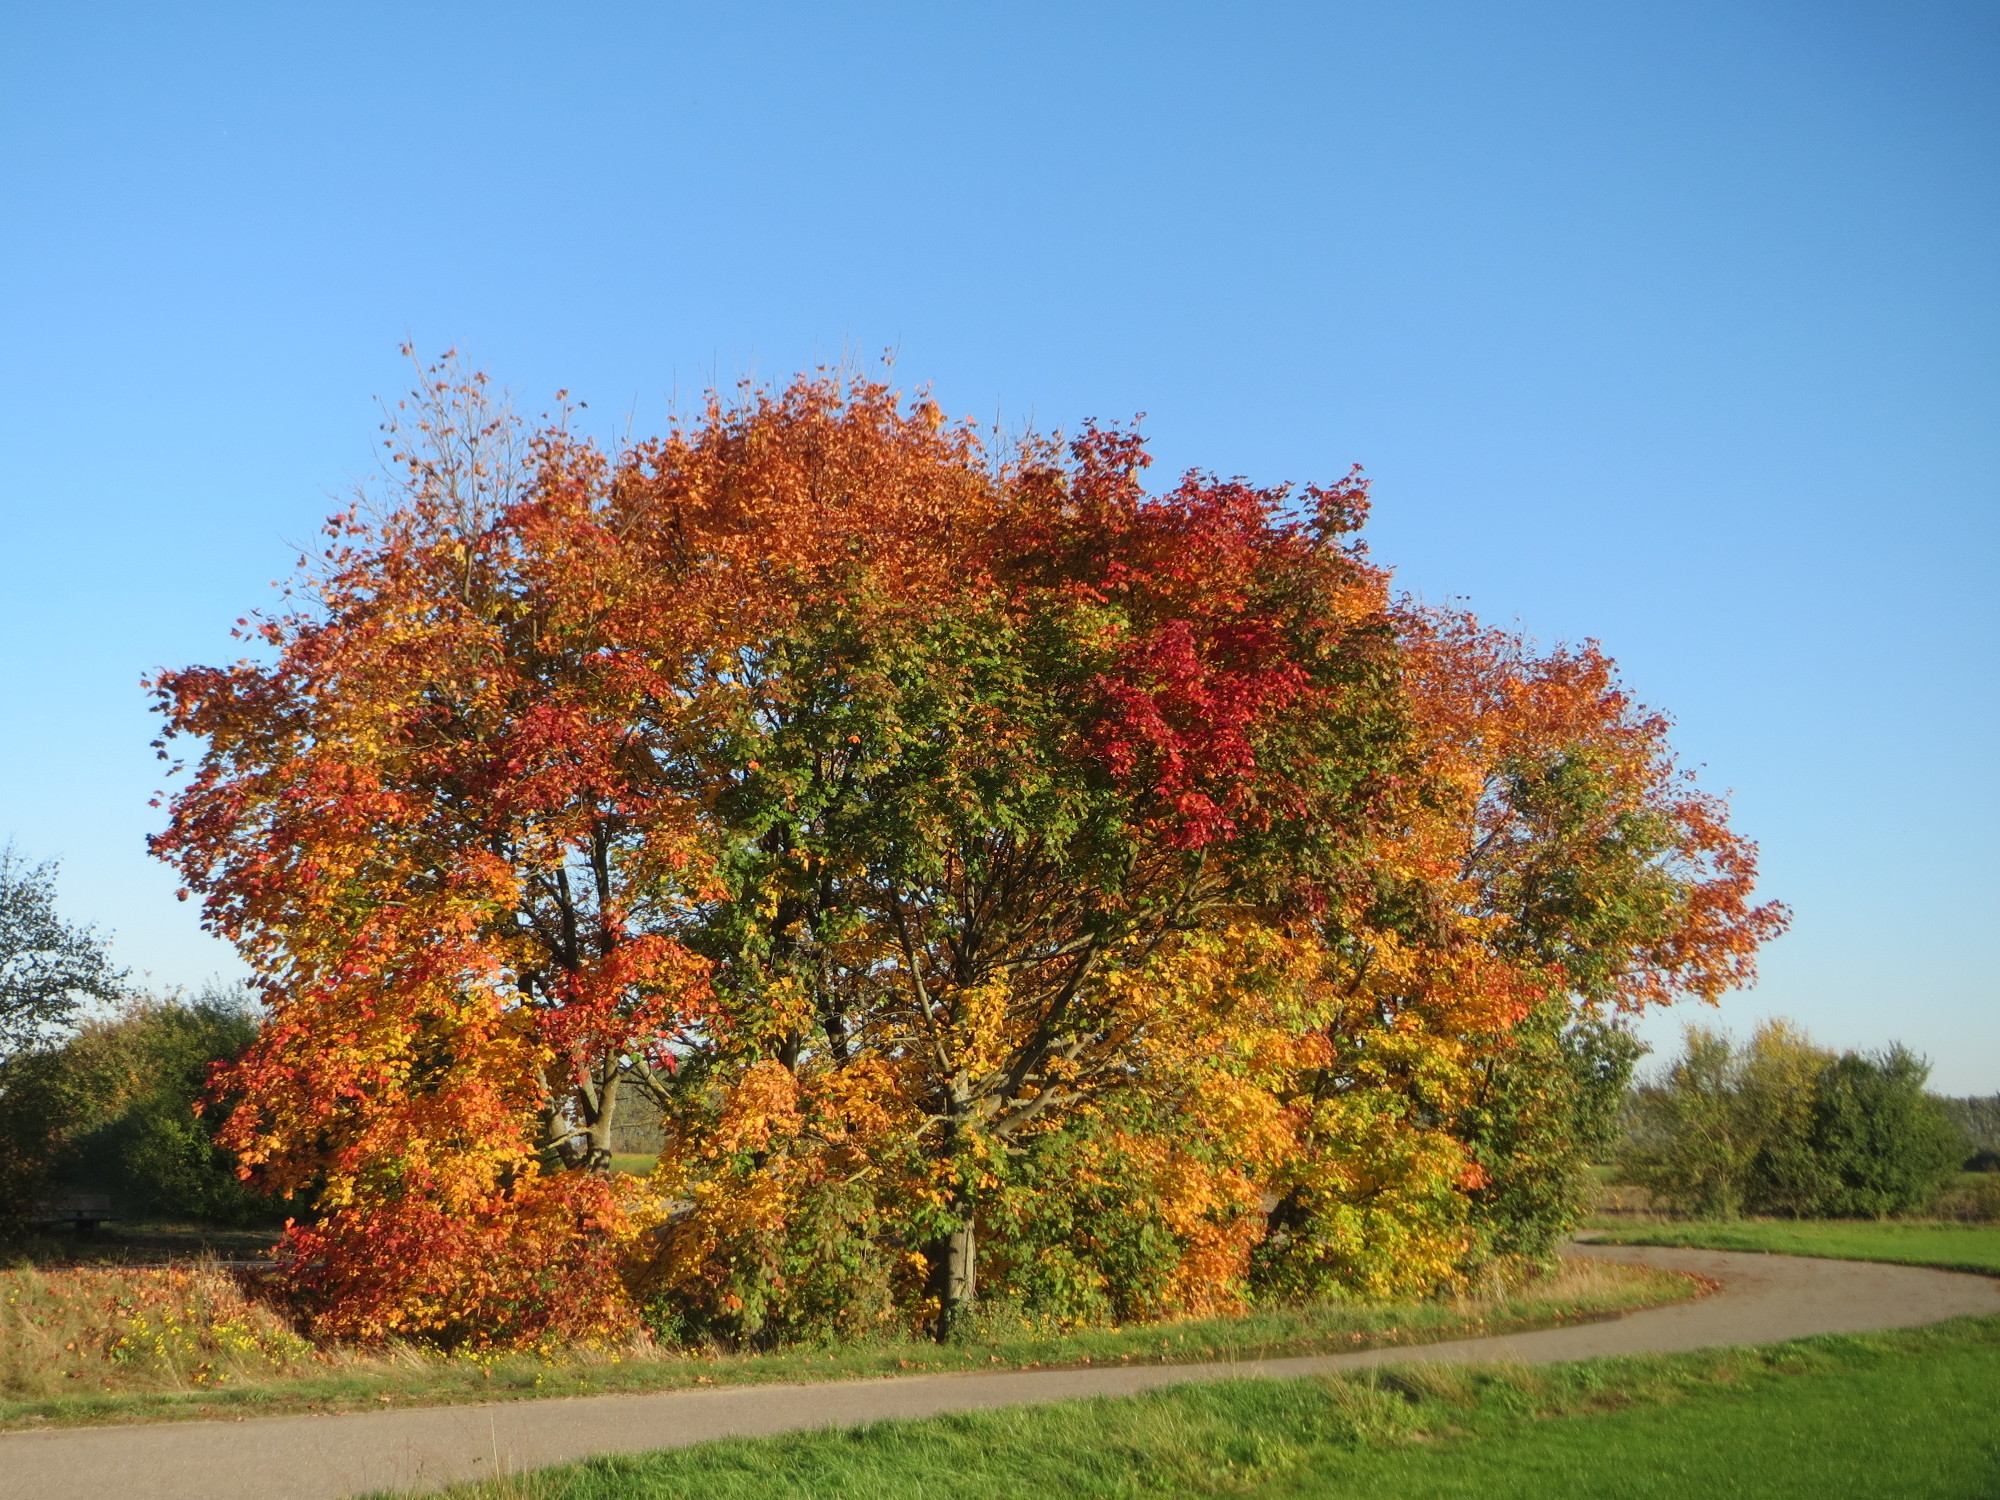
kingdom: Plantae
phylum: Tracheophyta
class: Magnoliopsida
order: Sapindales
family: Sapindaceae
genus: Acer
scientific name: Acer platanoides
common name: Norway maple
